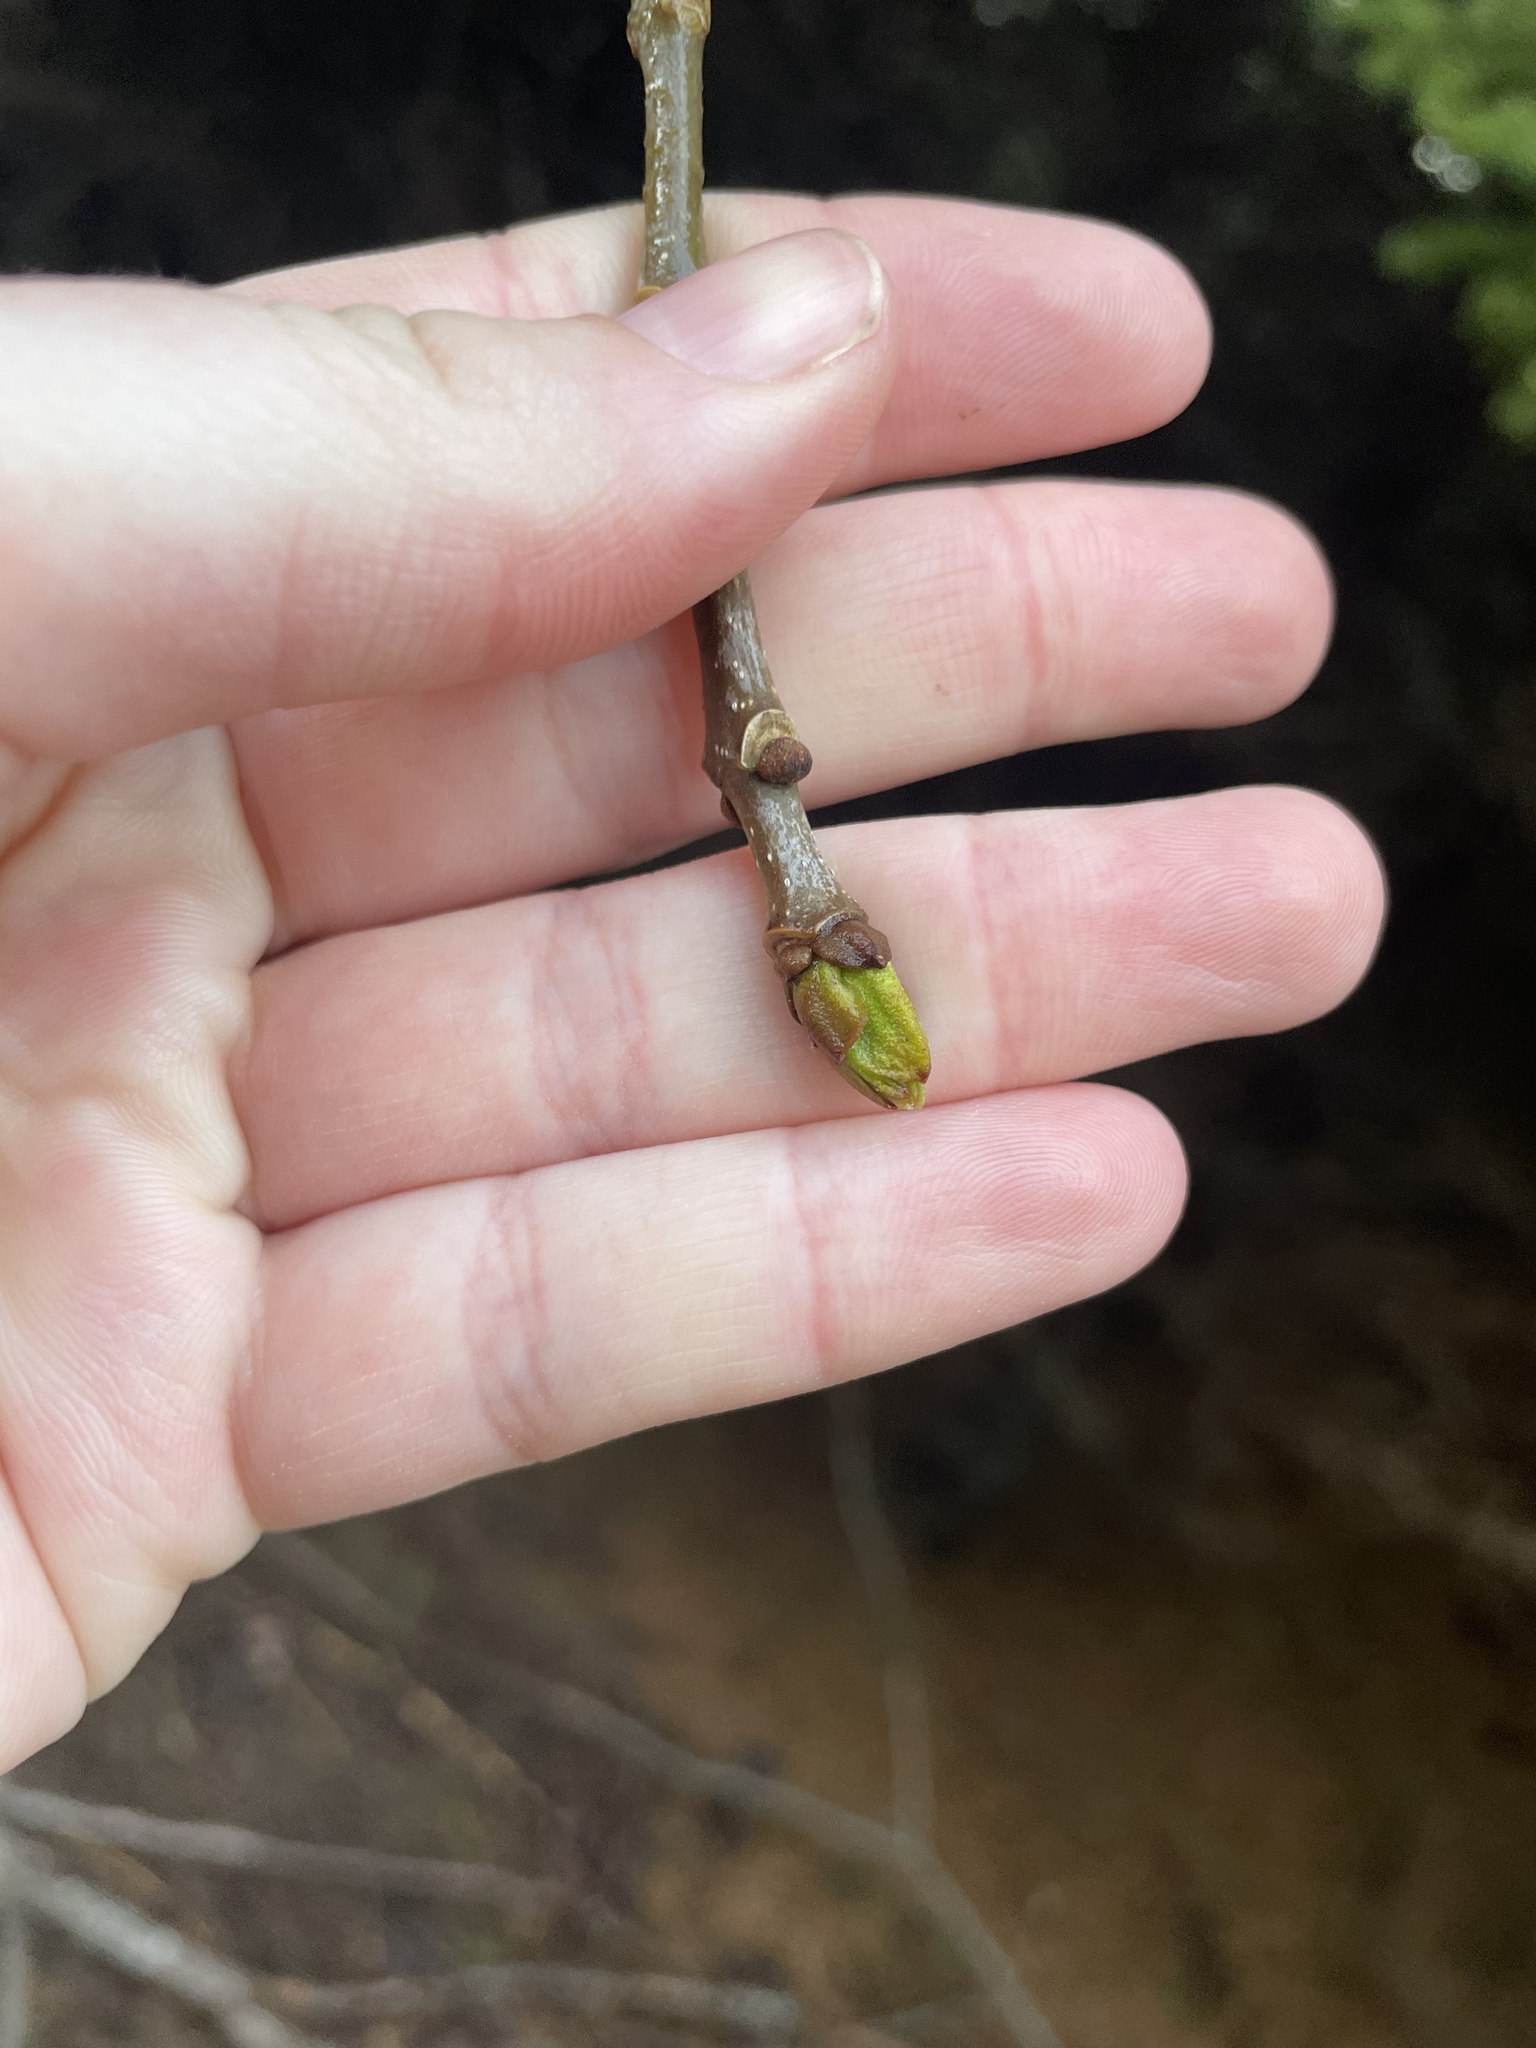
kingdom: Plantae
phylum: Tracheophyta
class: Magnoliopsida
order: Lamiales
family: Oleaceae
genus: Fraxinus
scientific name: Fraxinus americana
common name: White ash
